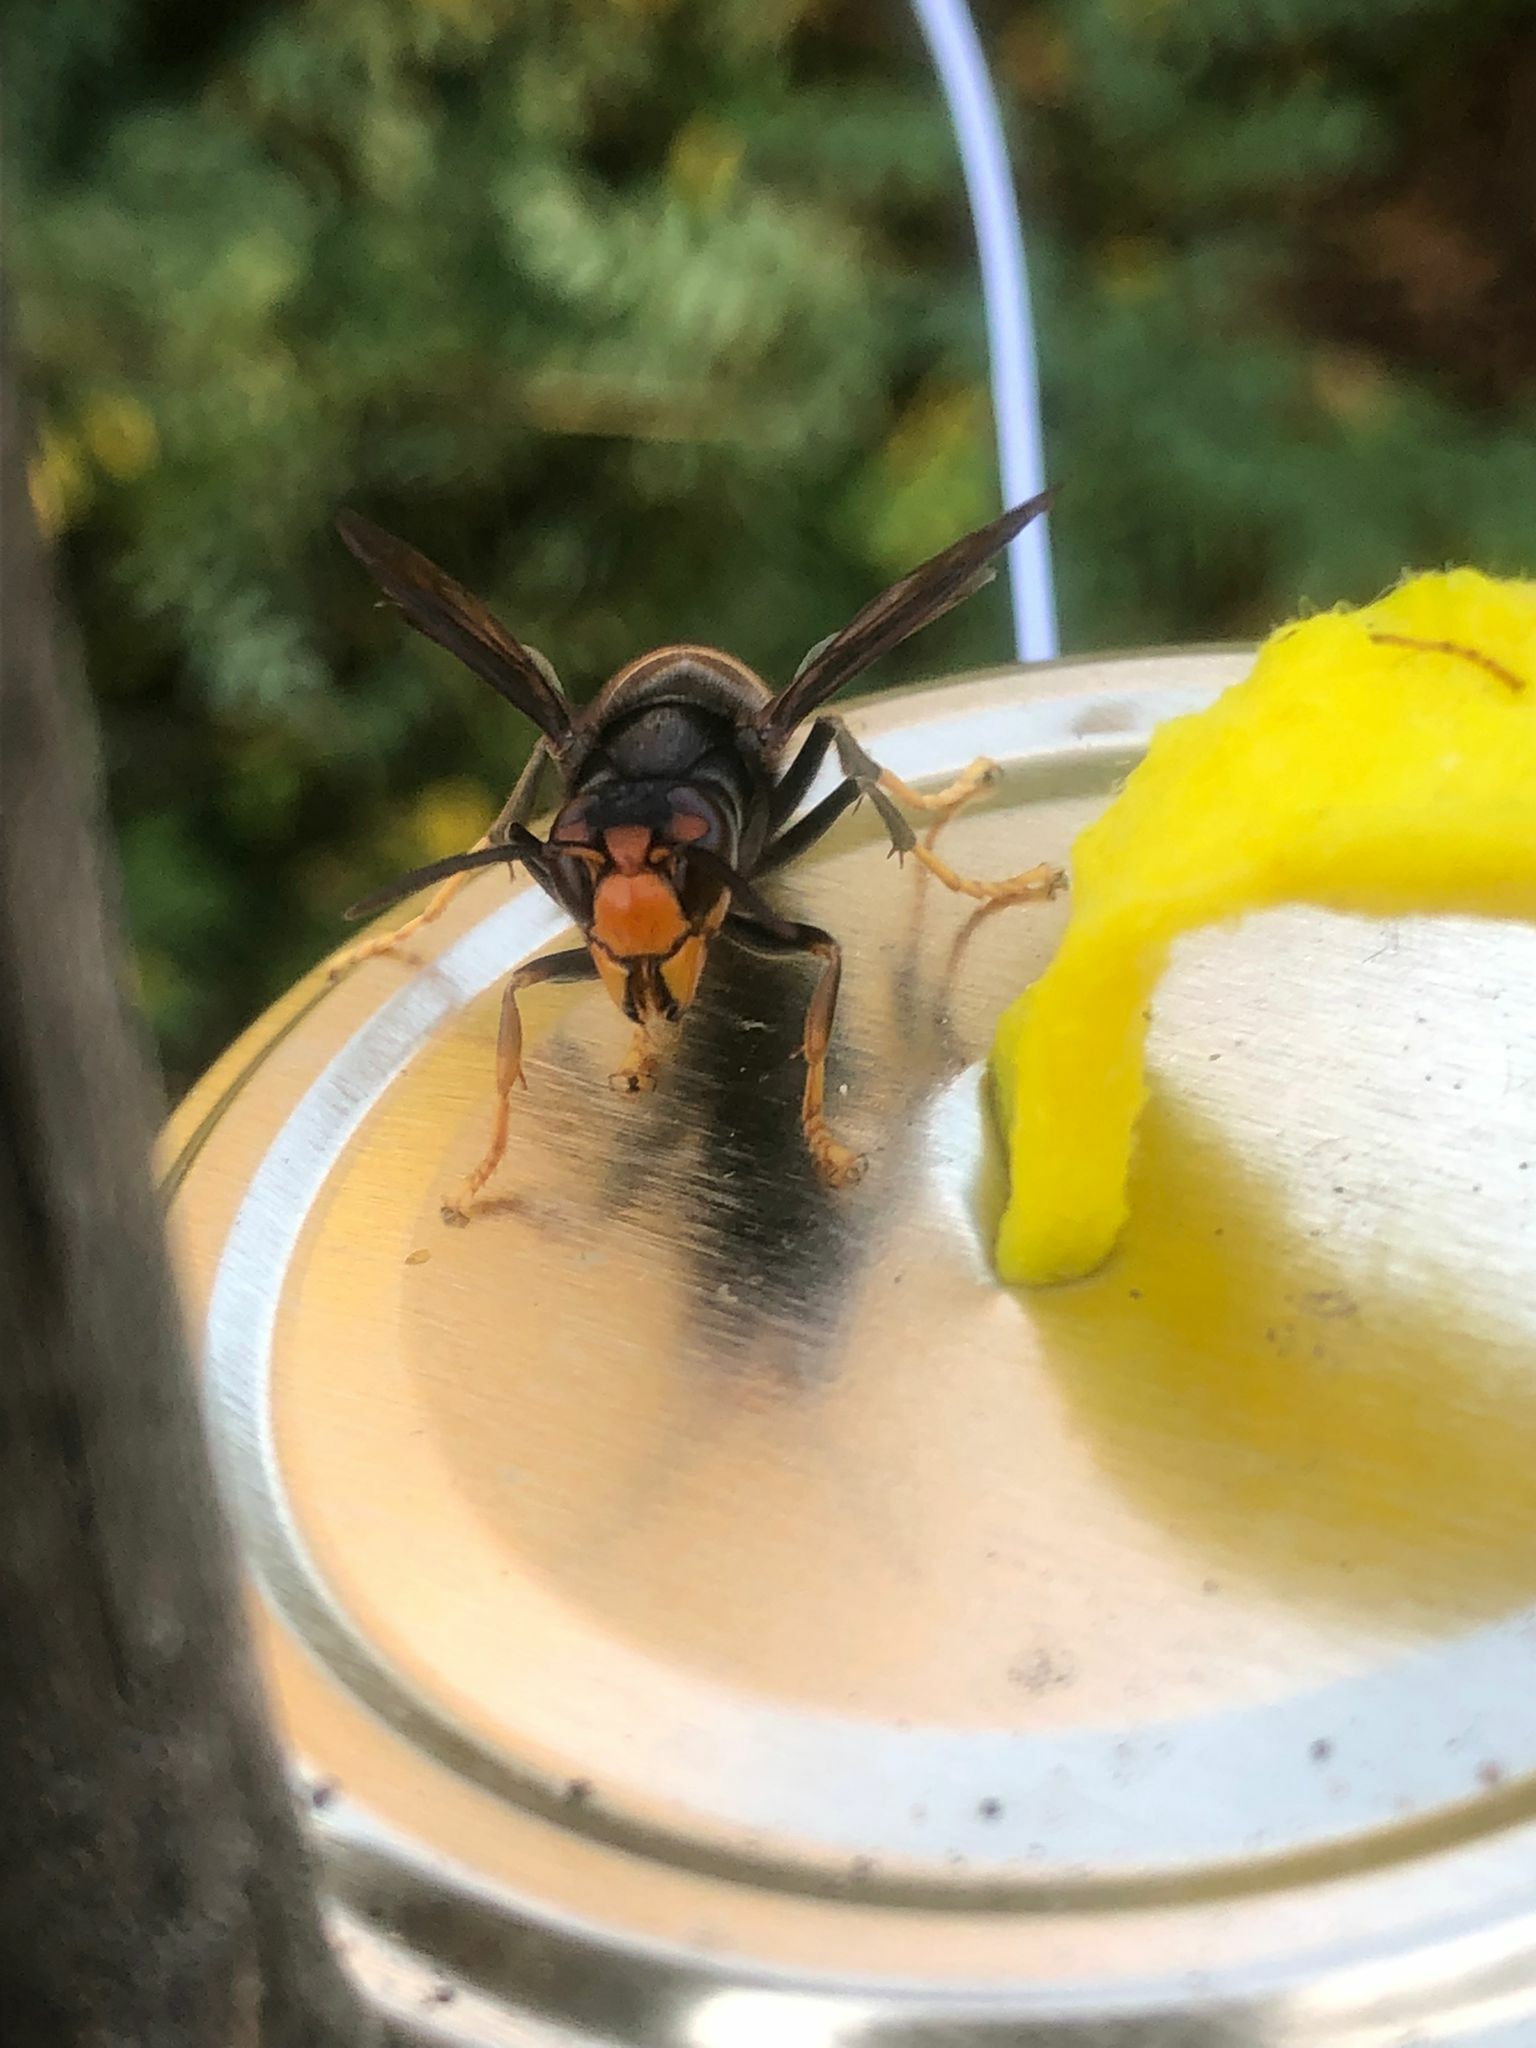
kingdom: Animalia
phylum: Arthropoda
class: Insecta
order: Hymenoptera
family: Vespidae
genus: Vespa
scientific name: Vespa velutina
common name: Asian hornet
